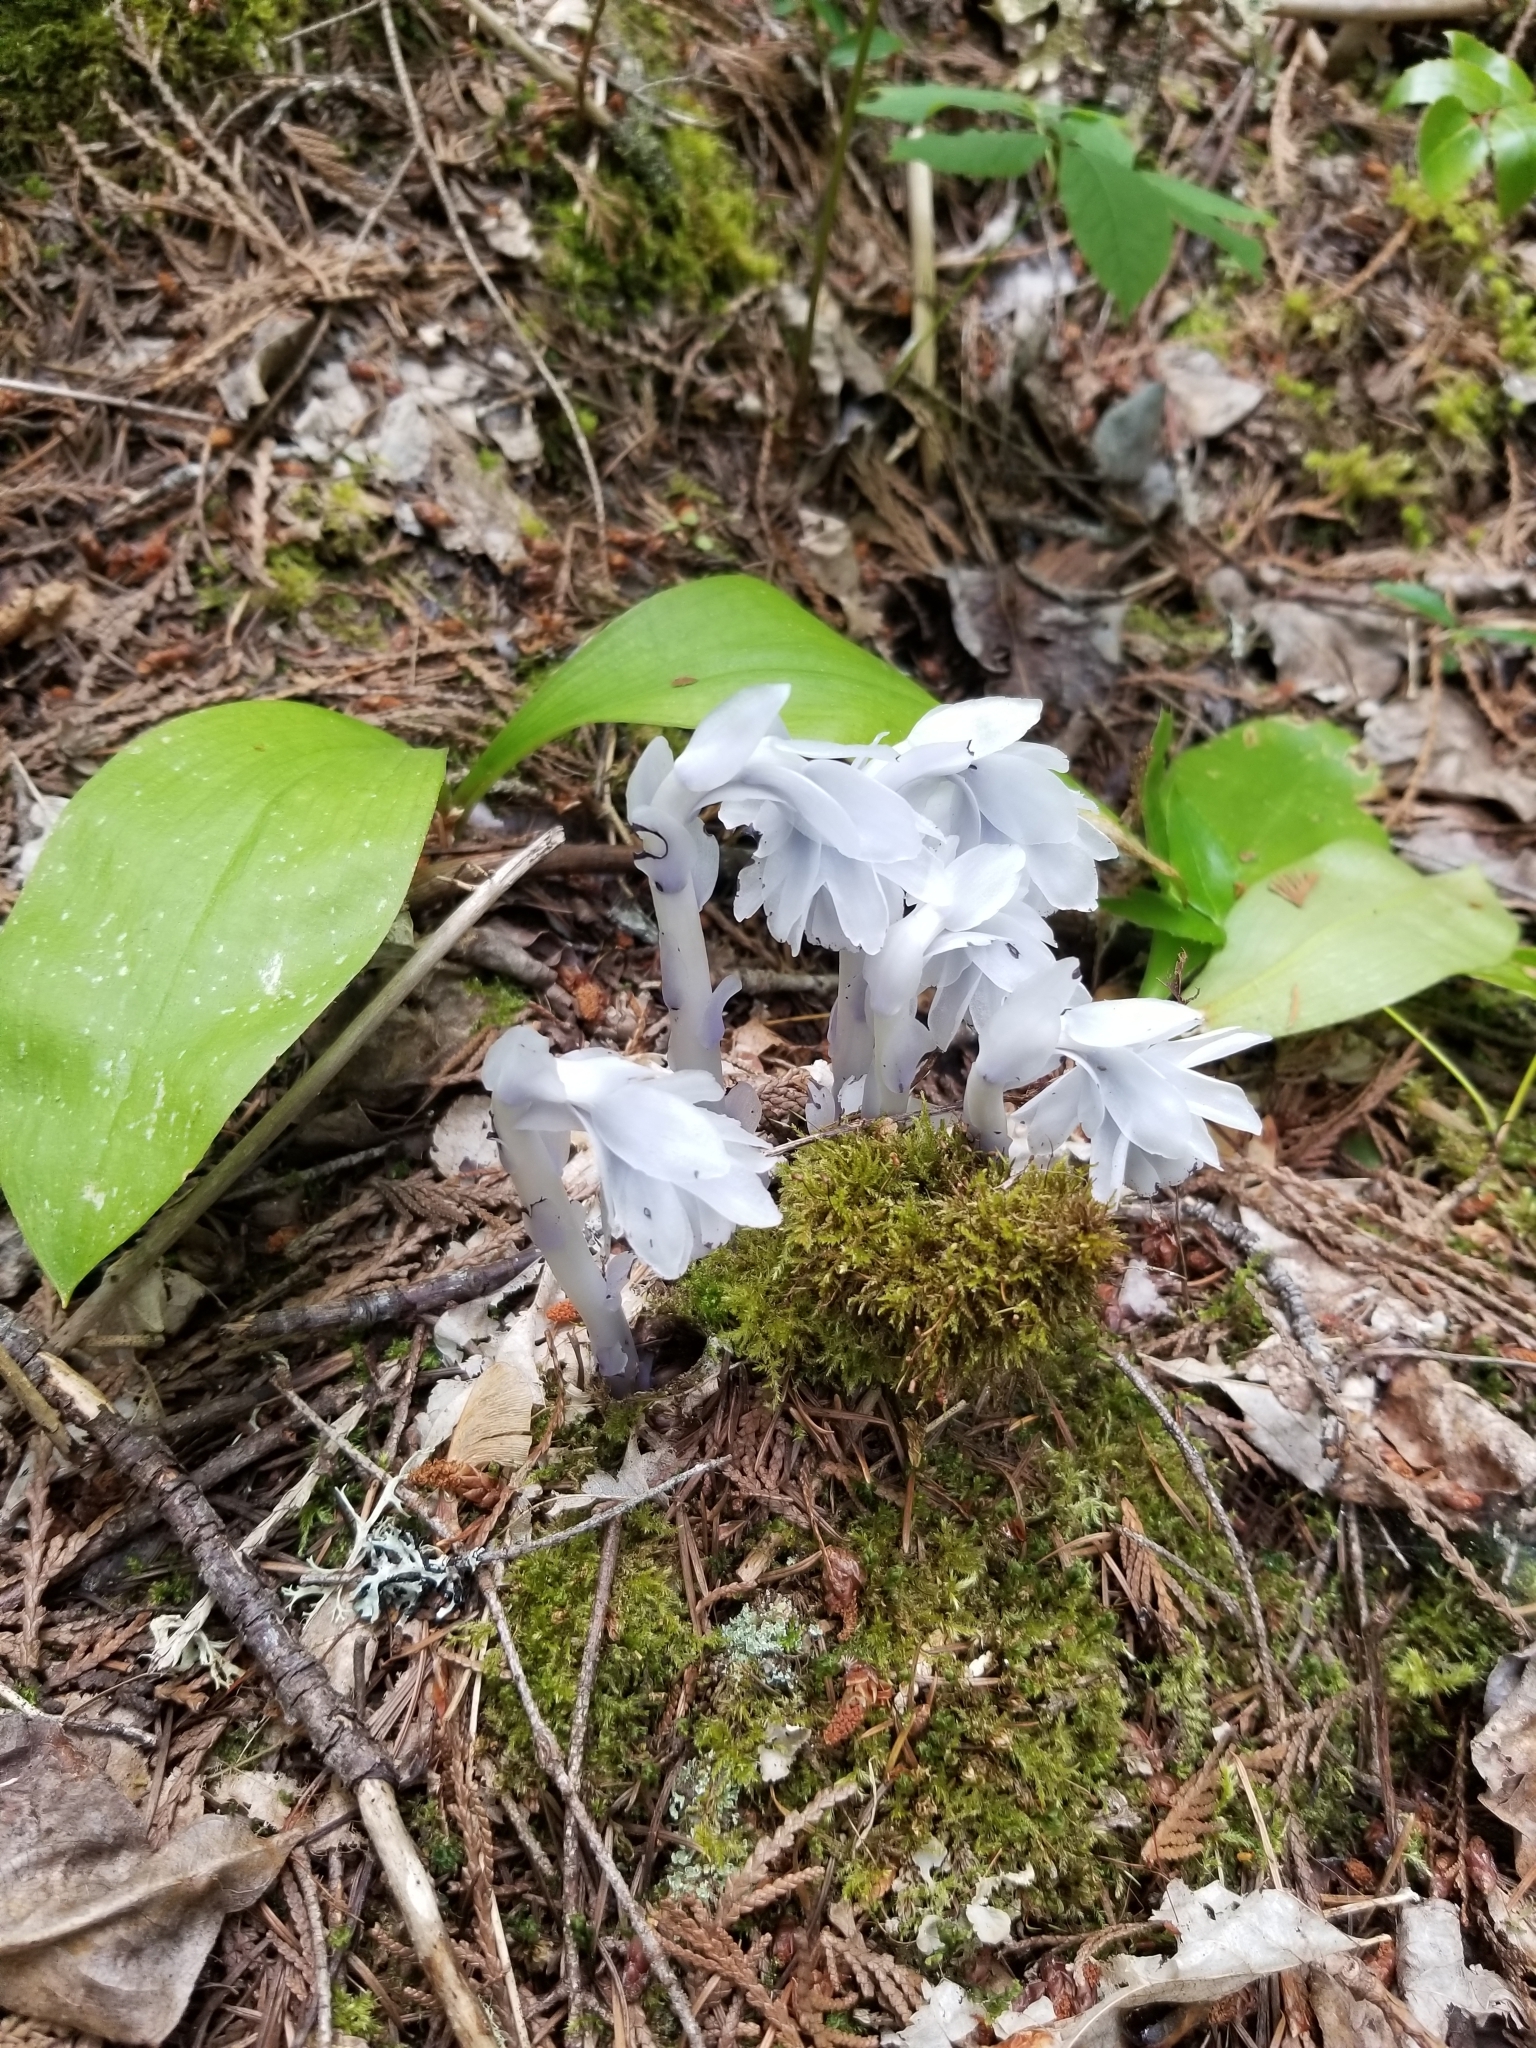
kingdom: Plantae
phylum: Tracheophyta
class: Magnoliopsida
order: Ericales
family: Ericaceae
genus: Monotropa
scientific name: Monotropa uniflora
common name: Convulsion root
